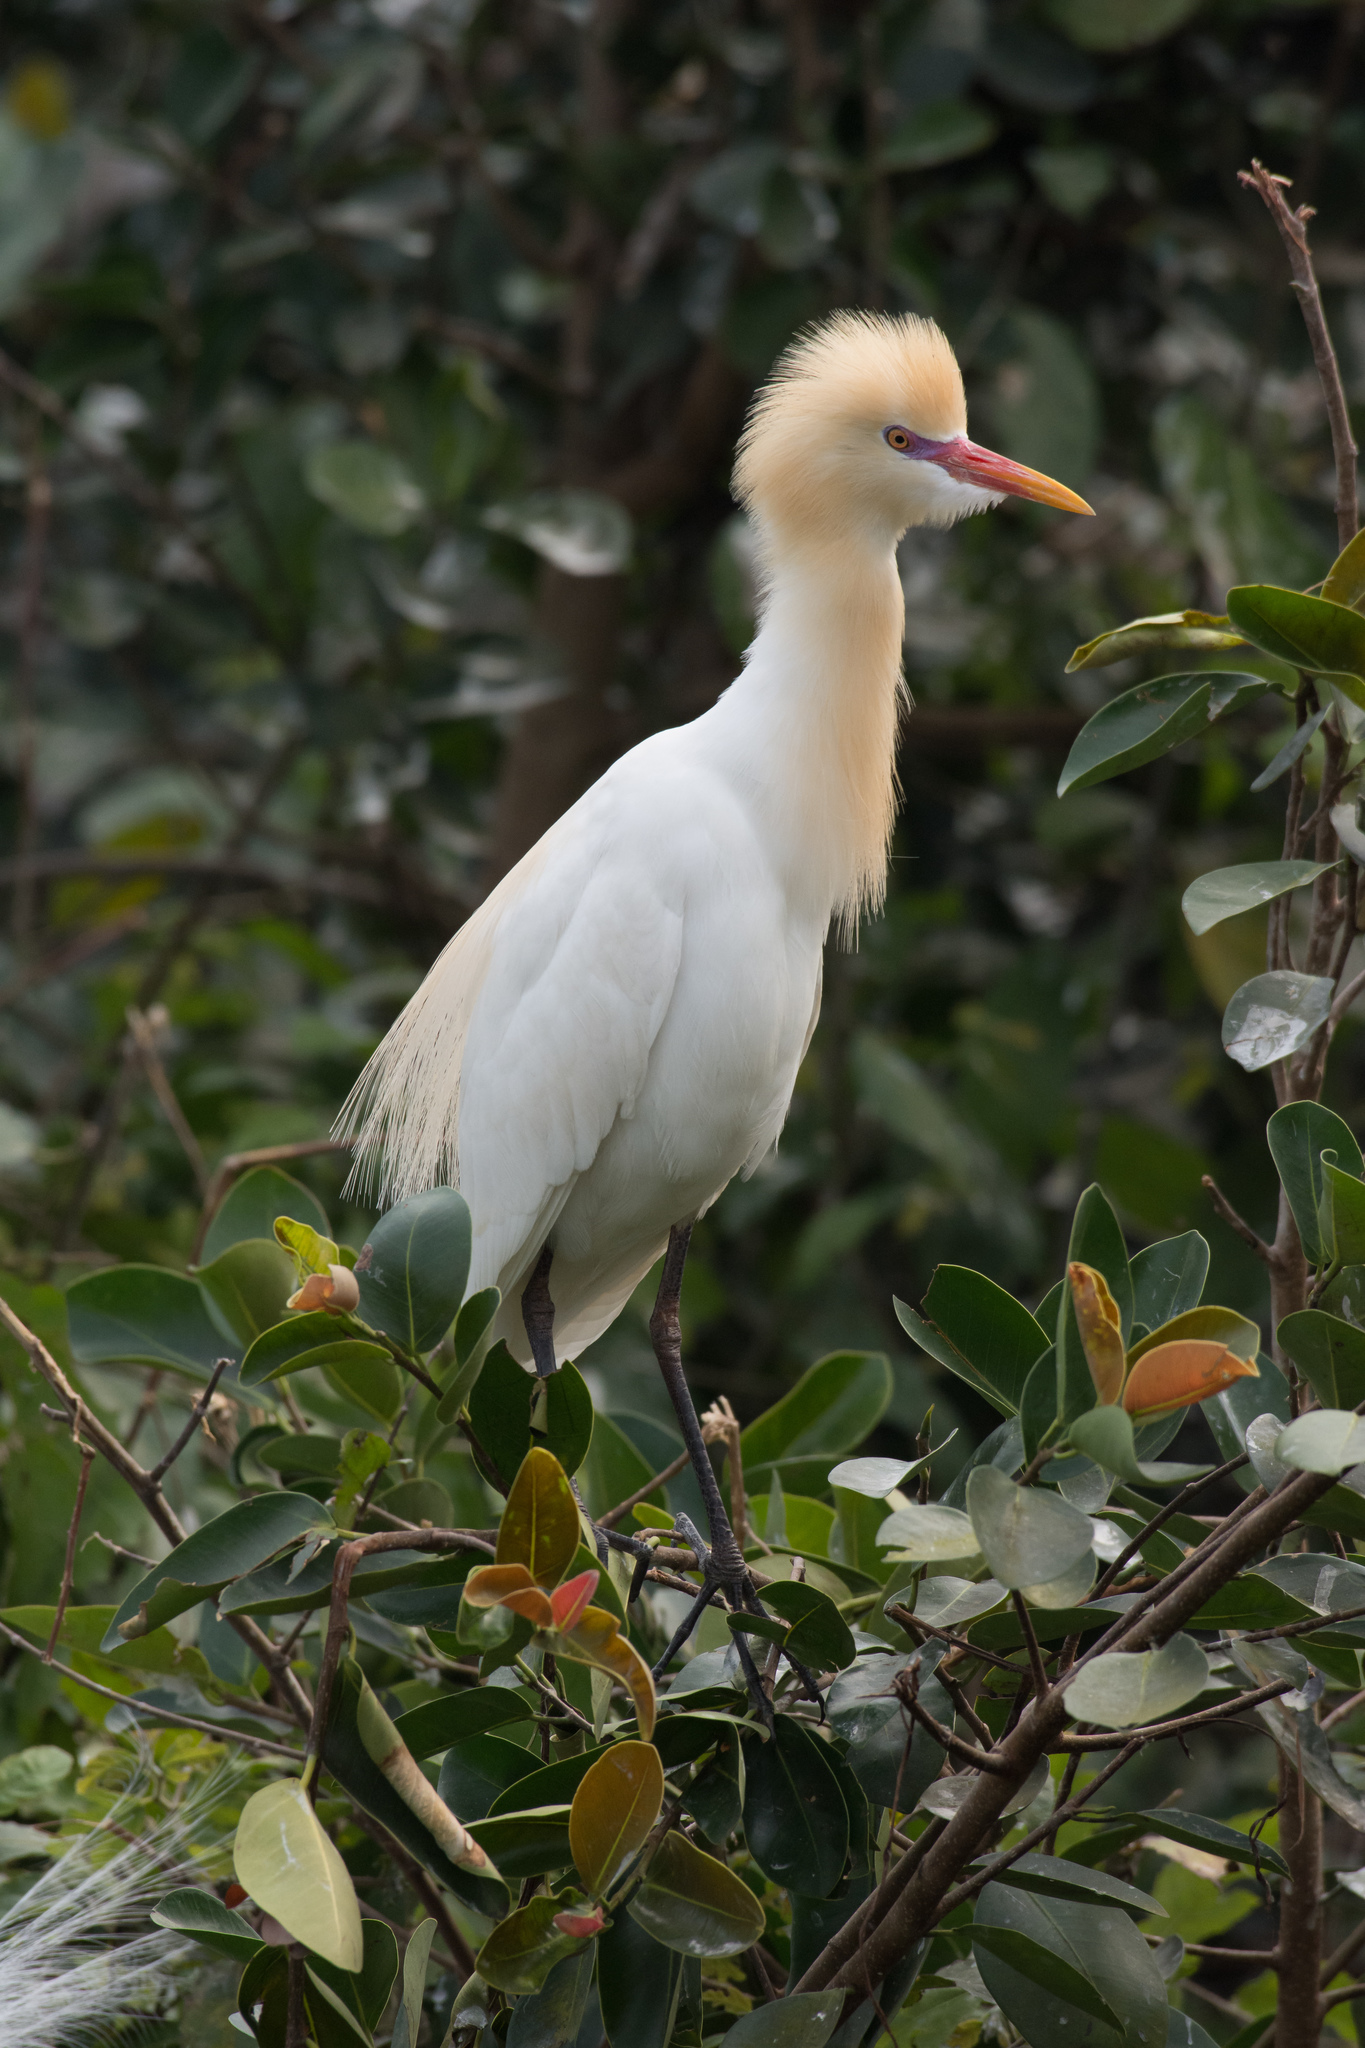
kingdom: Animalia
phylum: Chordata
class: Aves
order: Pelecaniformes
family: Ardeidae
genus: Bubulcus
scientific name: Bubulcus coromandus
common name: Eastern cattle egret
